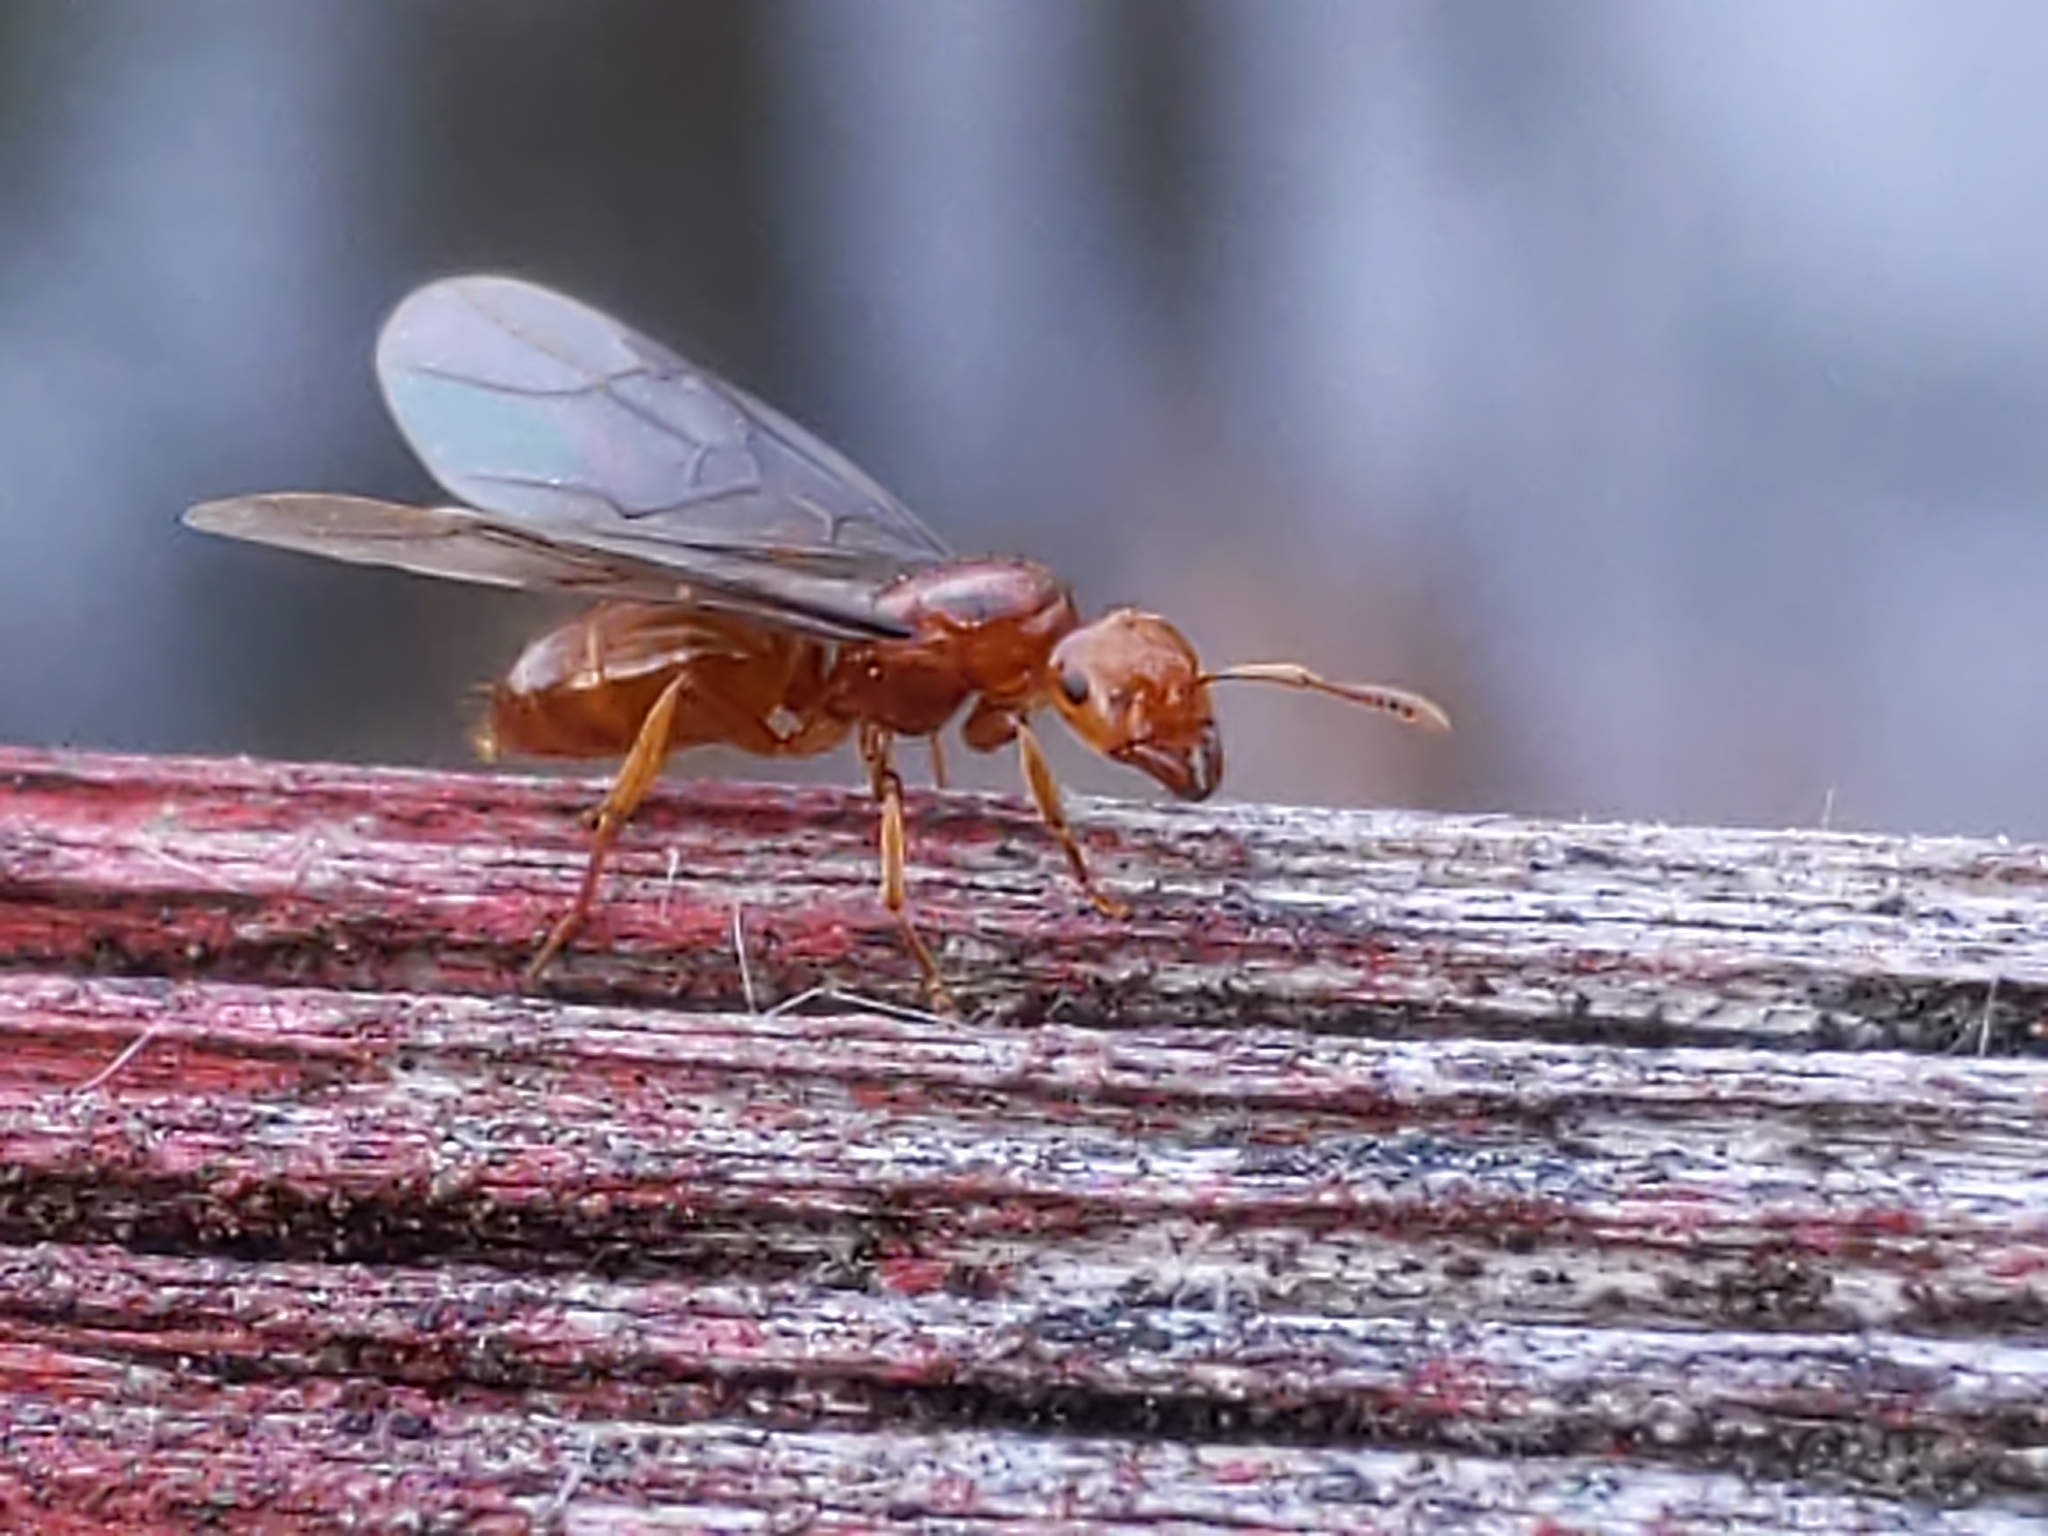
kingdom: Animalia
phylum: Arthropoda
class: Insecta
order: Hymenoptera
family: Formicidae
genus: Acanthomyops
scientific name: Acanthomyops interjectus
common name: Larger yellow ant
